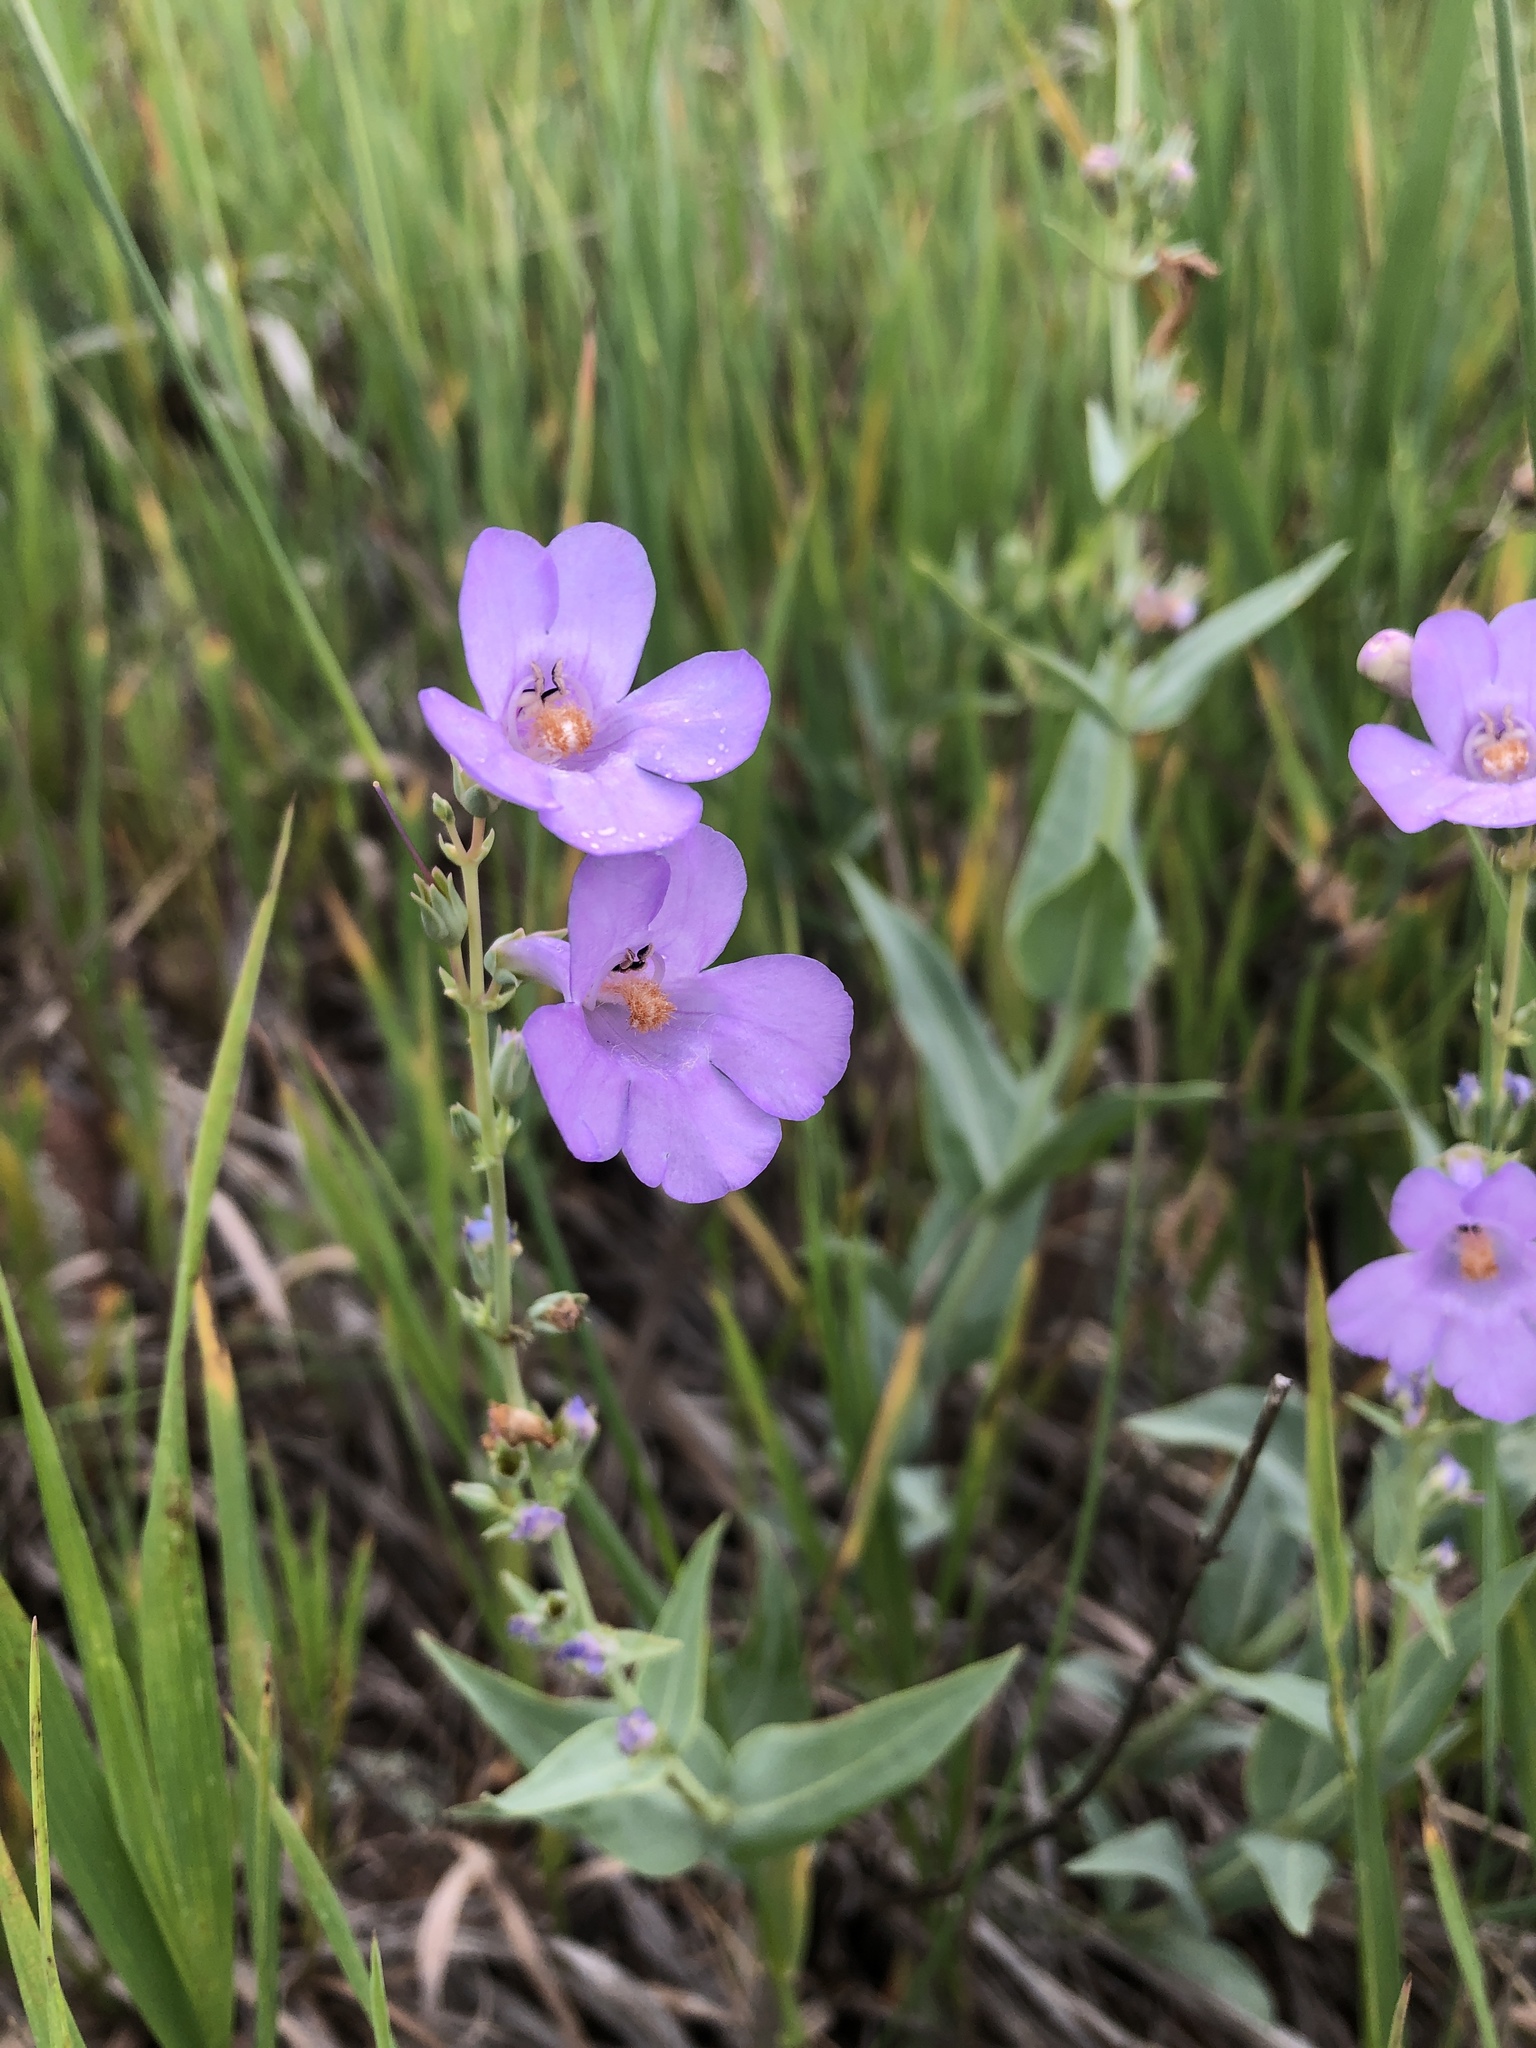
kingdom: Plantae
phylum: Tracheophyta
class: Magnoliopsida
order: Lamiales
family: Plantaginaceae
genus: Penstemon
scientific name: Penstemon secundiflorus
